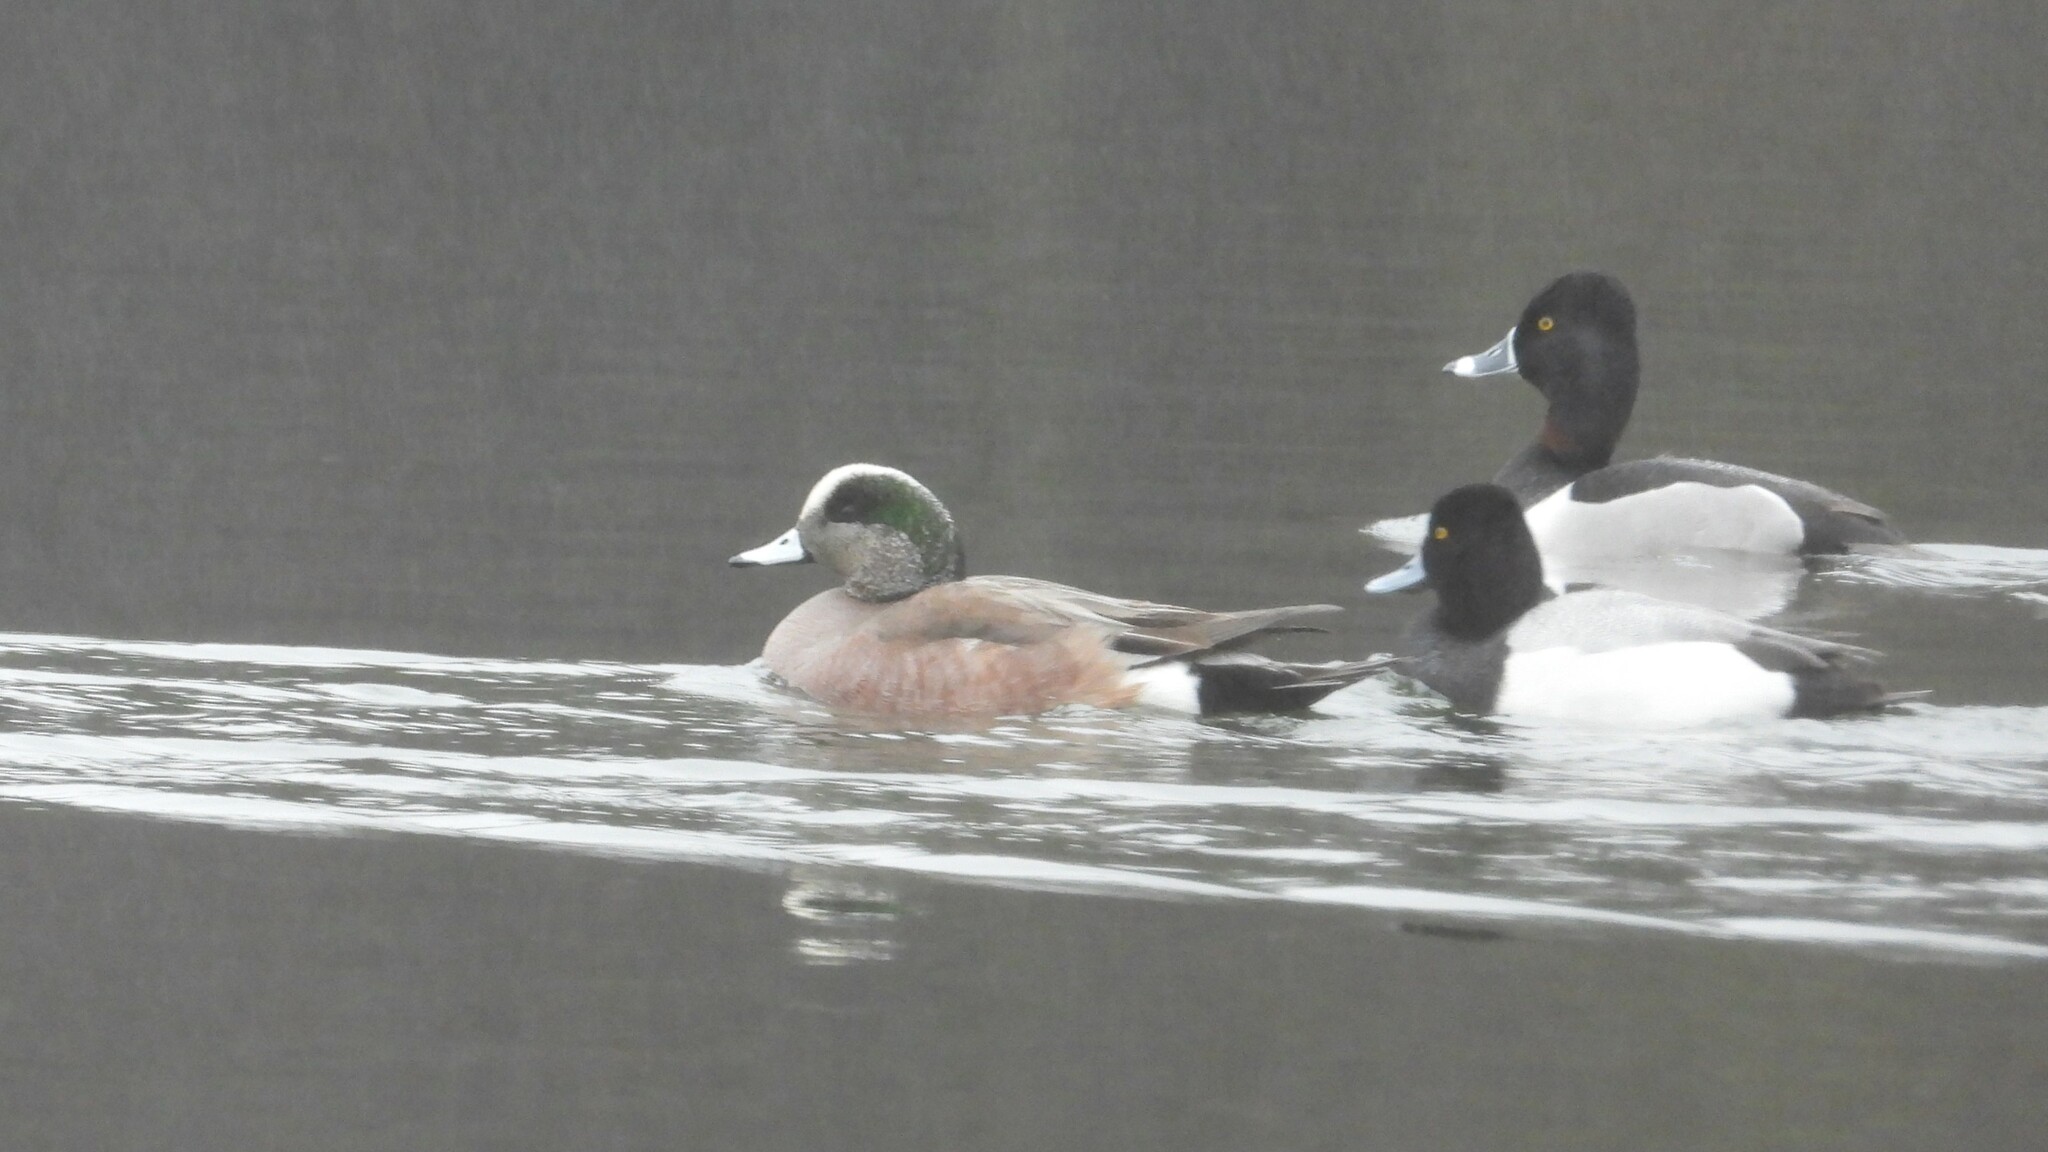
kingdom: Animalia
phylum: Chordata
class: Aves
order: Anseriformes
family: Anatidae
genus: Mareca
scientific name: Mareca americana
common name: American wigeon
